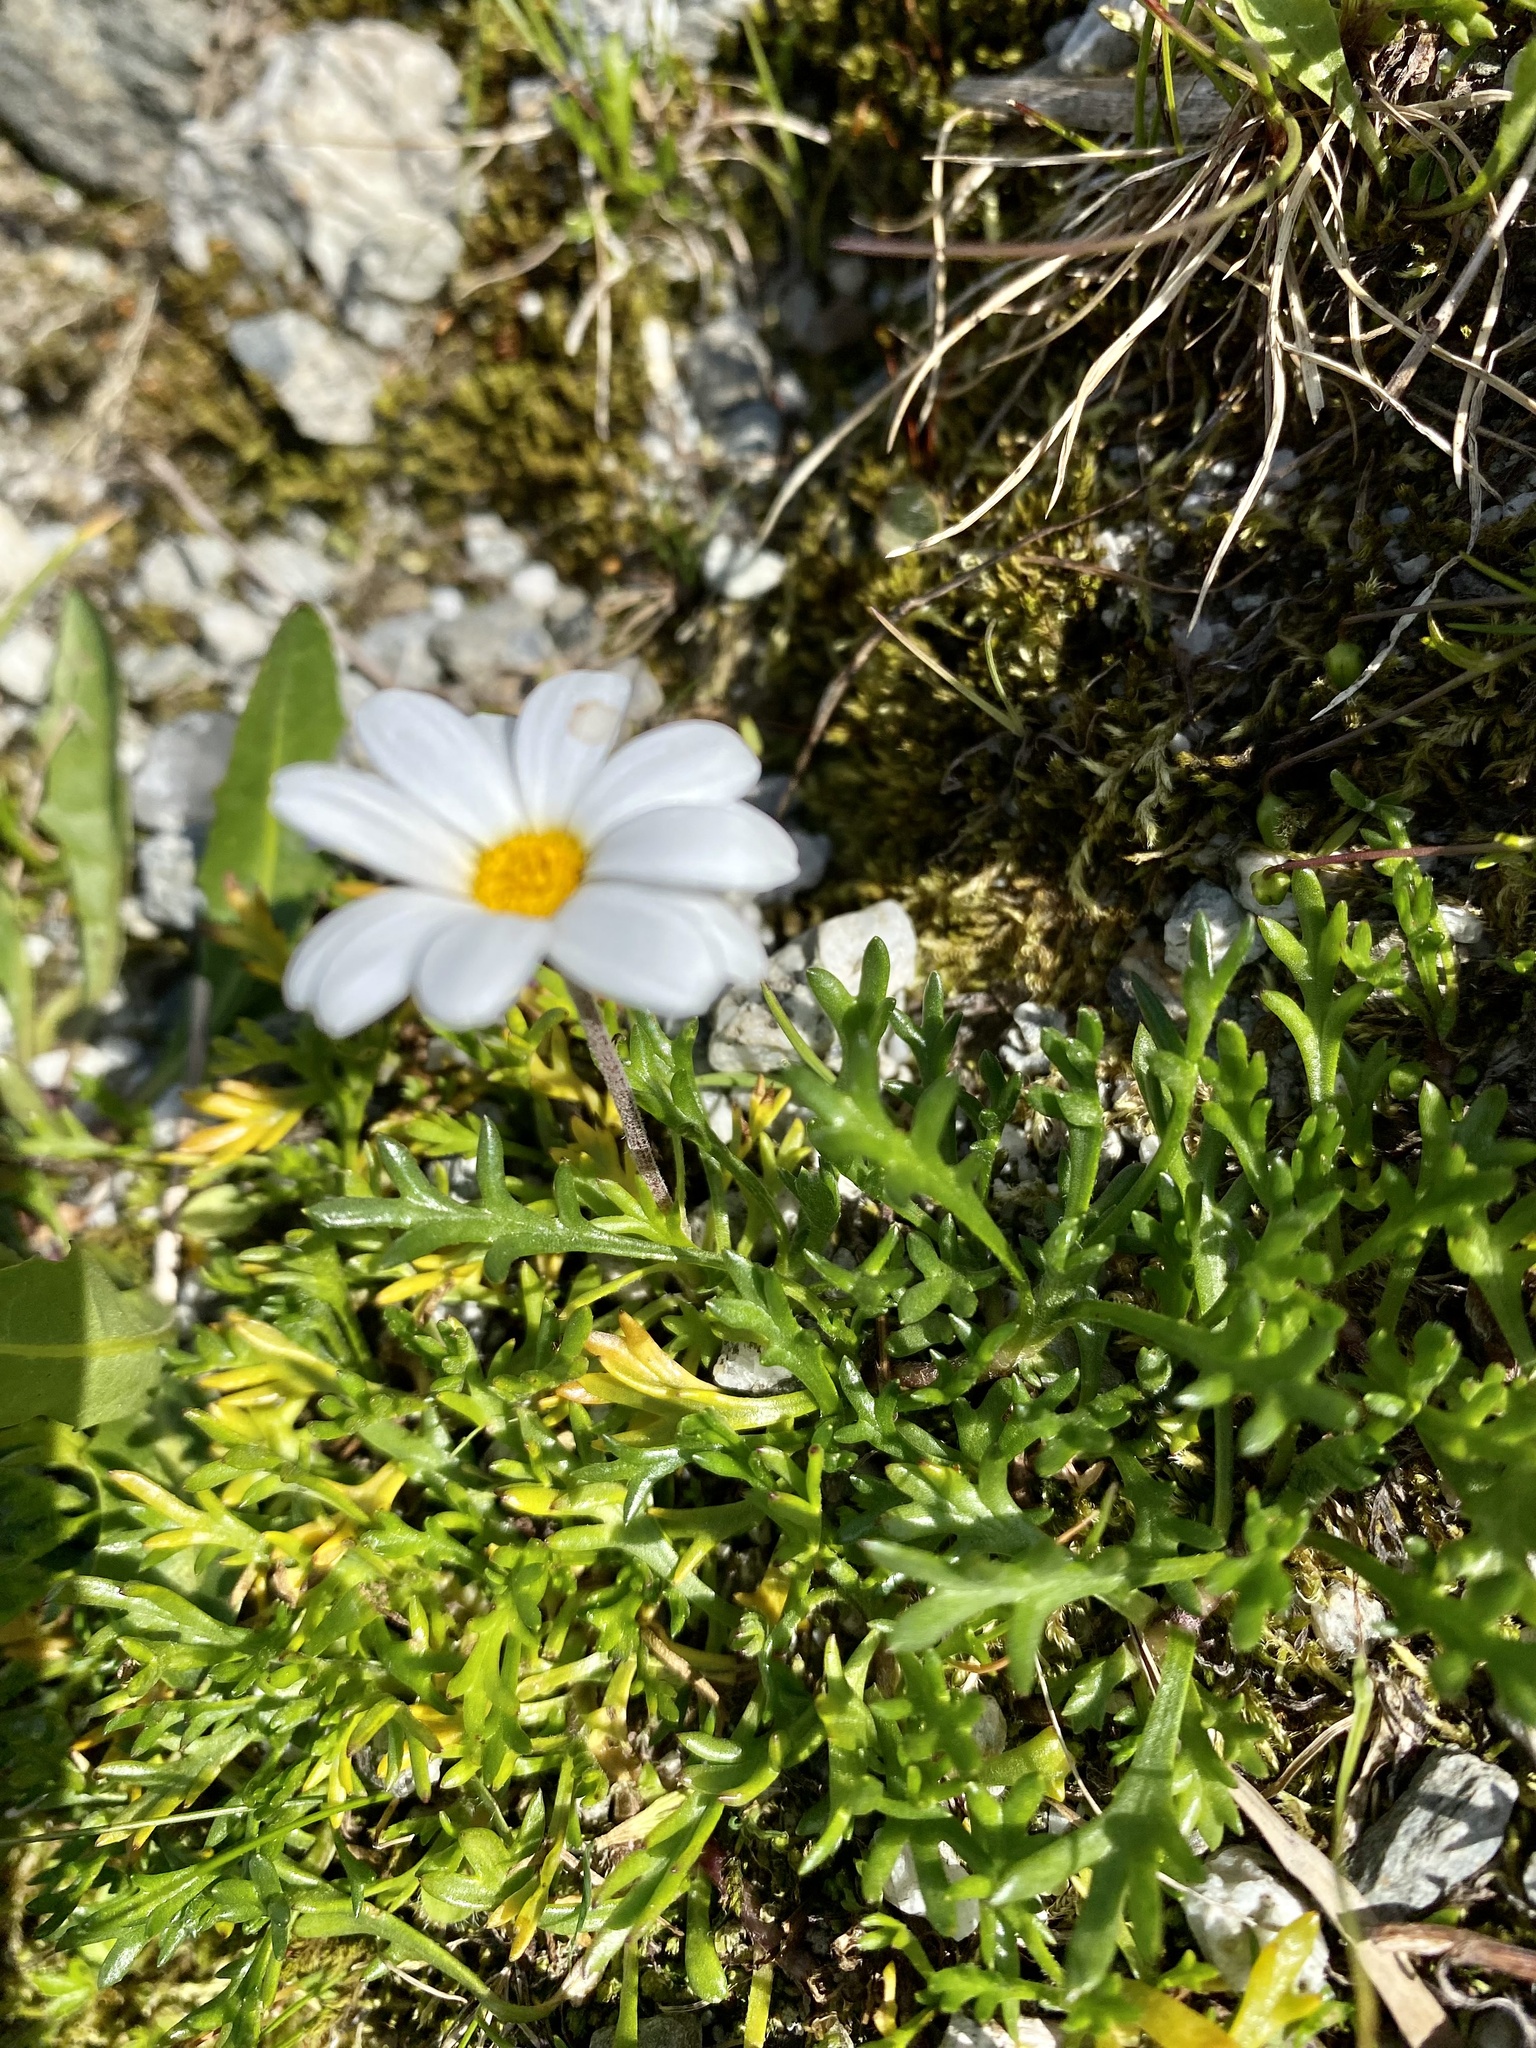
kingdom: Plantae
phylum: Tracheophyta
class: Magnoliopsida
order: Asterales
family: Asteraceae
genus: Leucanthemopsis
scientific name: Leucanthemopsis alpina
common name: Alpine moon daisy
